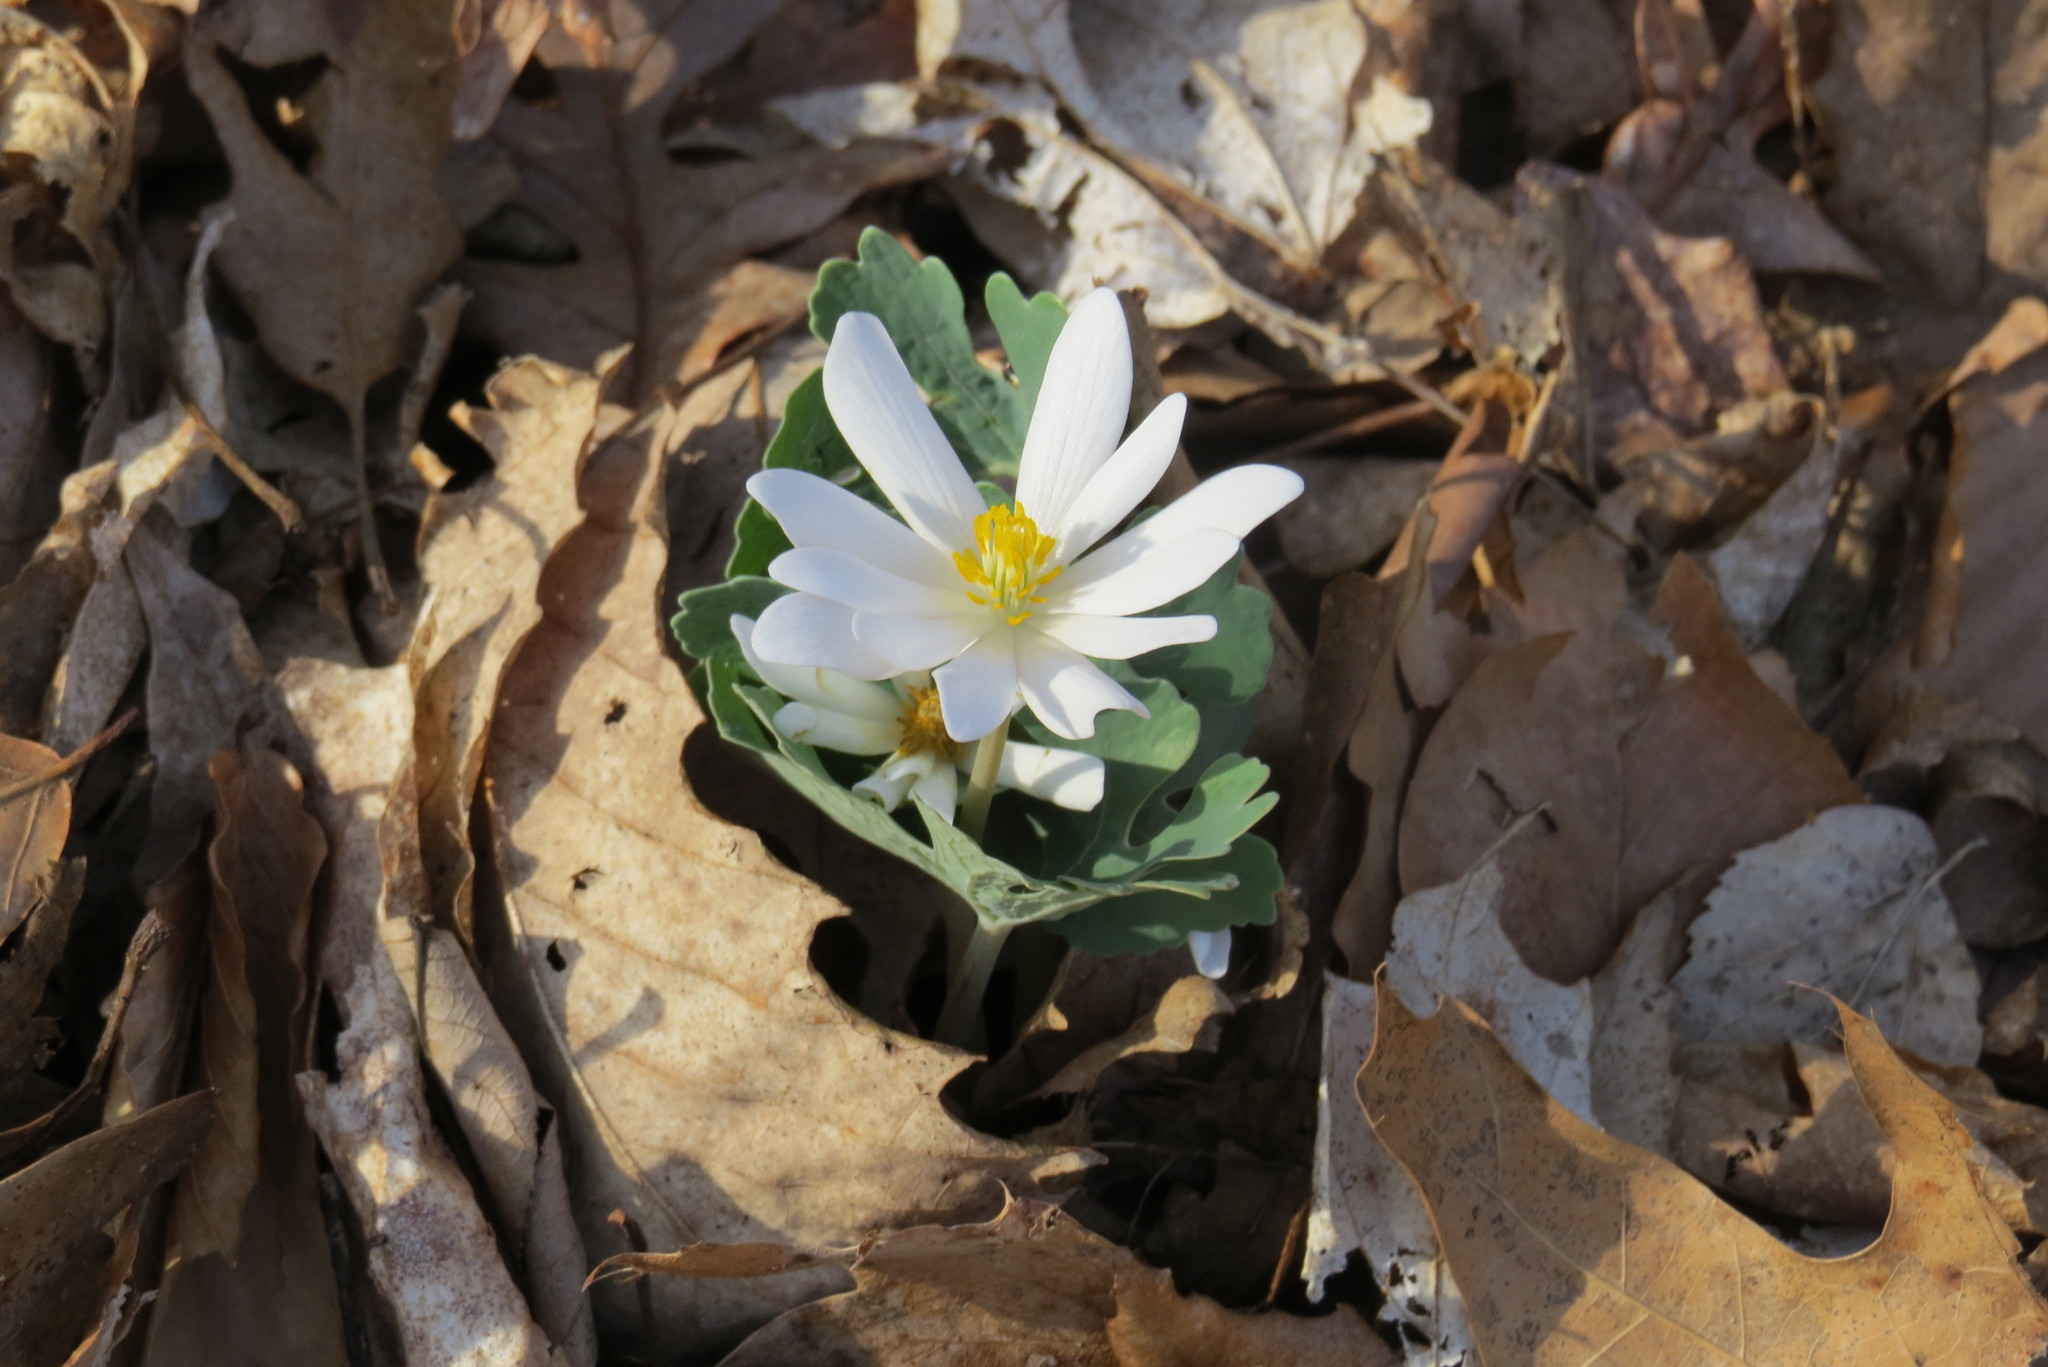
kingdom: Plantae
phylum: Tracheophyta
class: Magnoliopsida
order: Ranunculales
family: Papaveraceae
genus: Sanguinaria
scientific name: Sanguinaria canadensis
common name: Bloodroot
